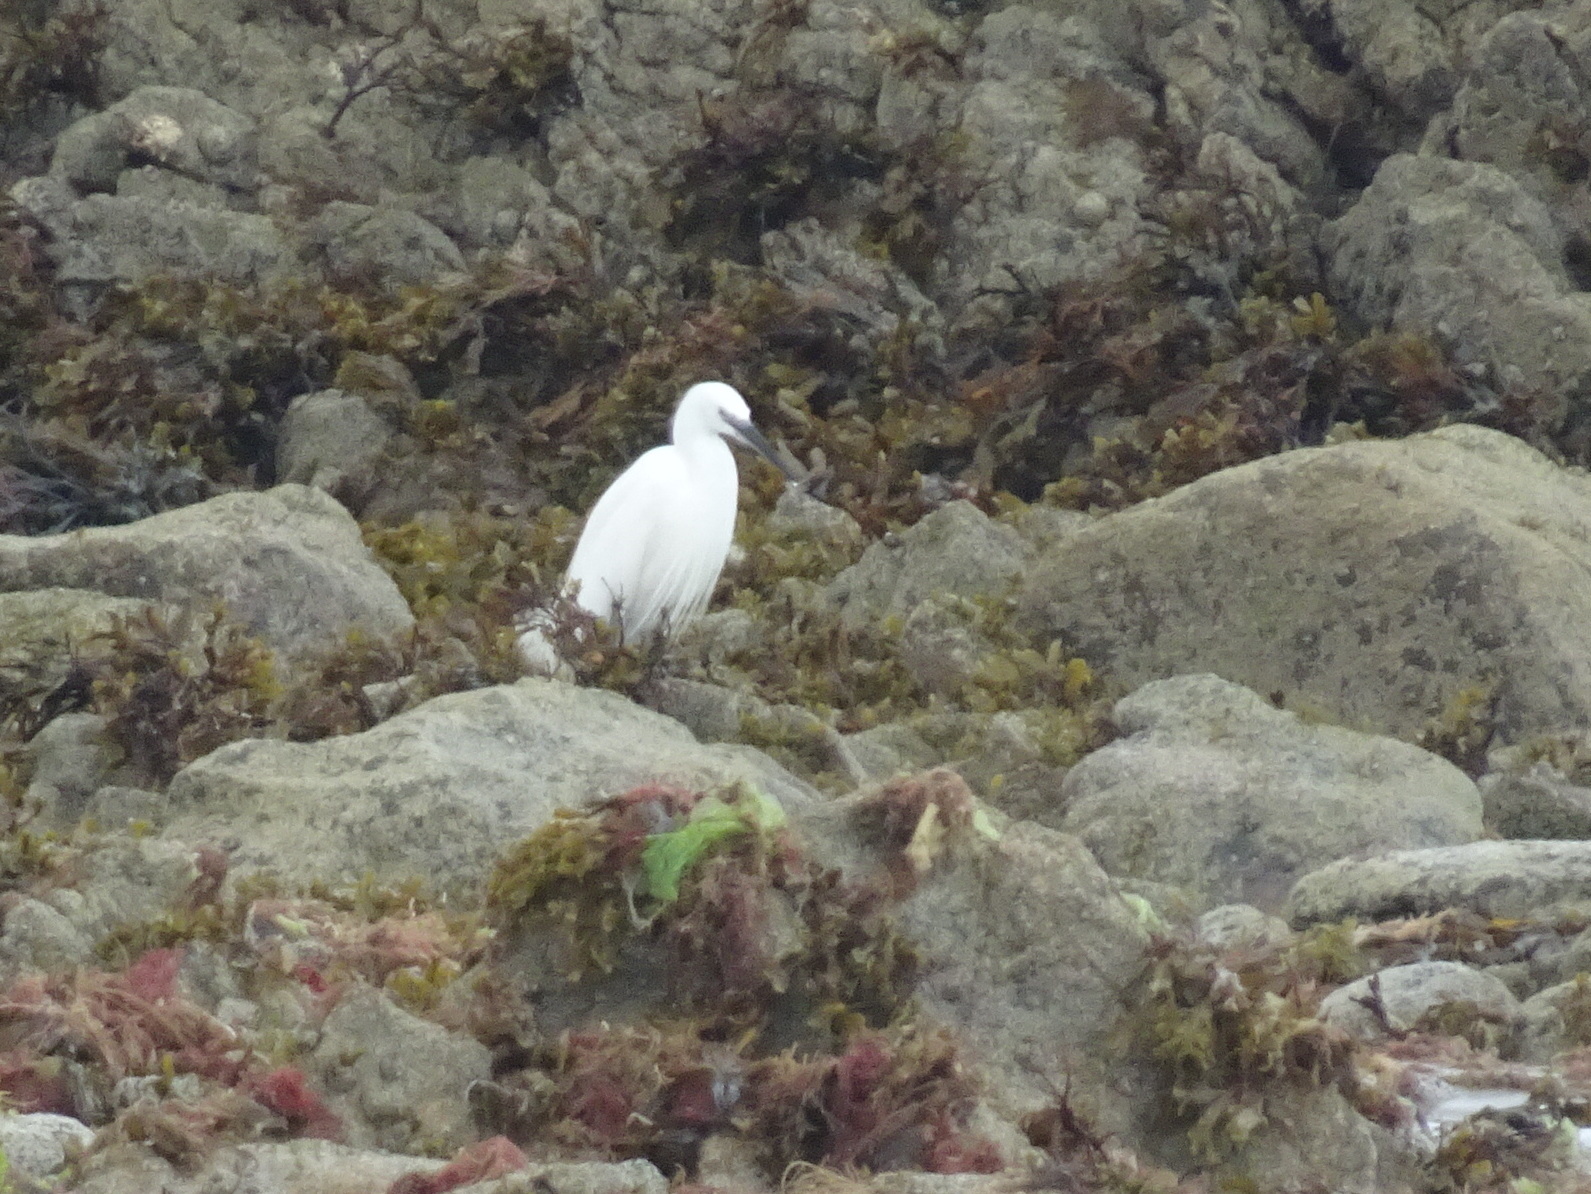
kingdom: Animalia
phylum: Chordata
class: Aves
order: Pelecaniformes
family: Ardeidae
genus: Egretta
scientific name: Egretta garzetta
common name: Little egret
